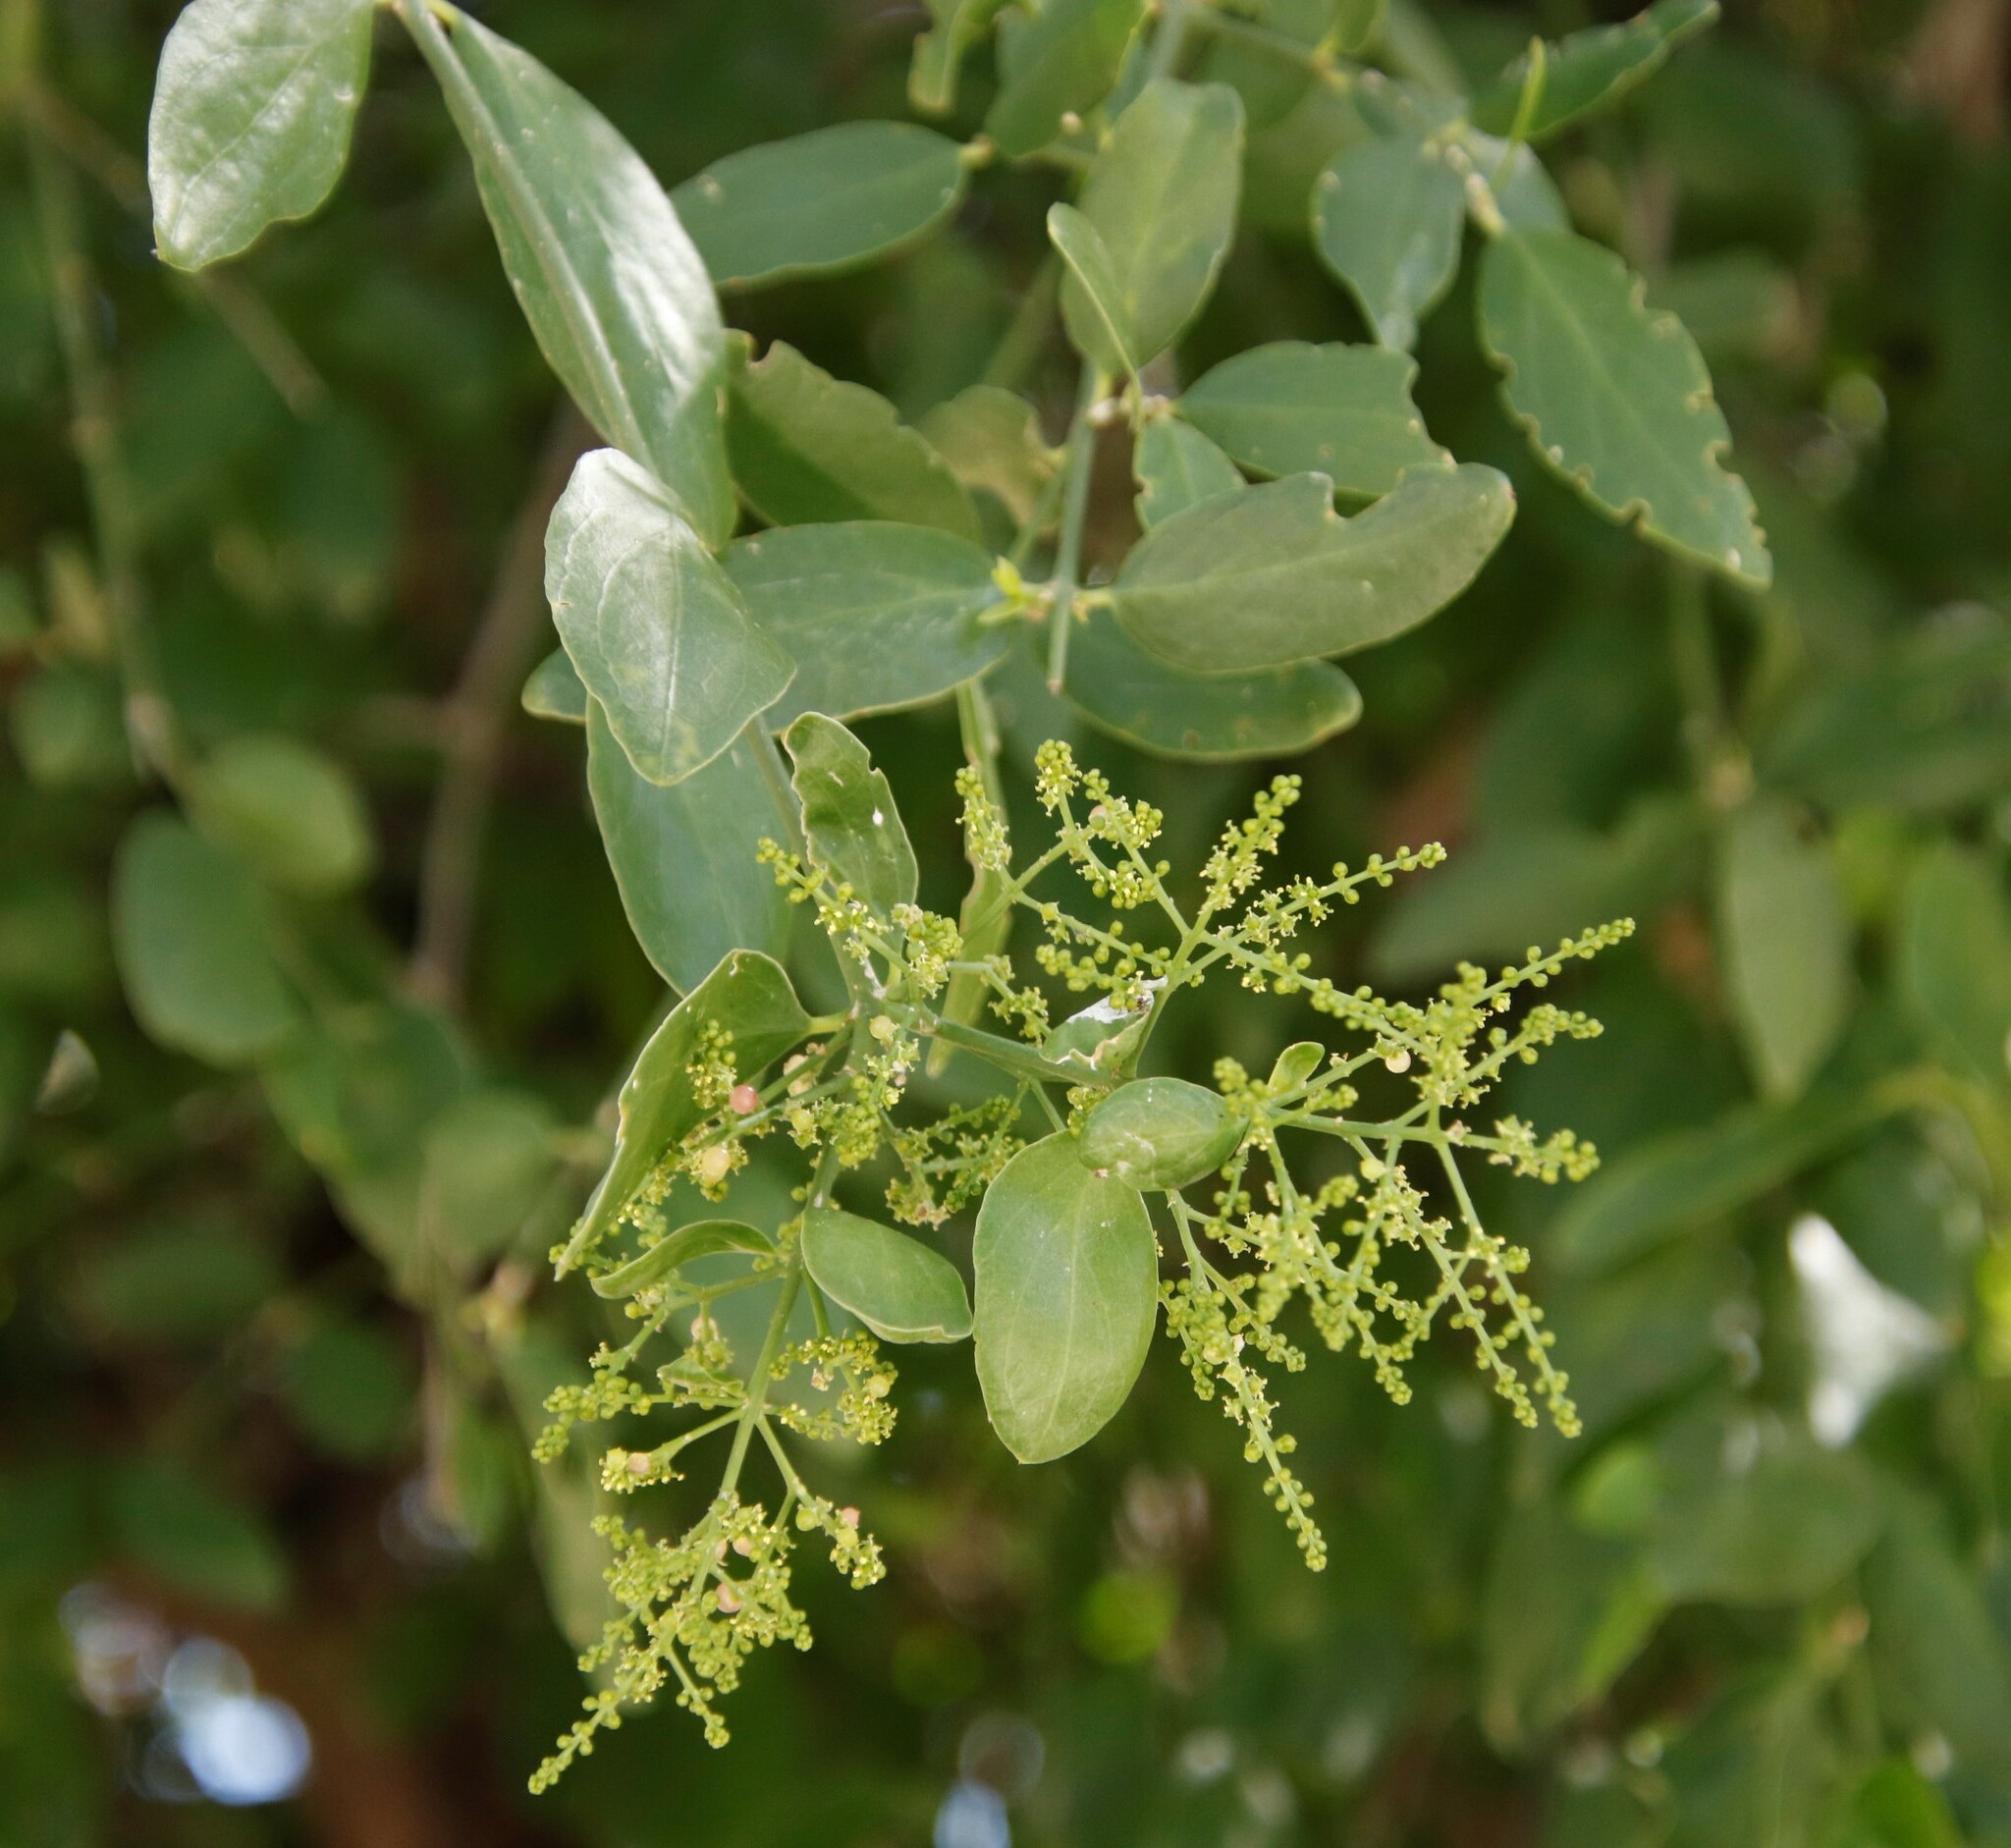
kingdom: Plantae
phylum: Tracheophyta
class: Magnoliopsida
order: Brassicales
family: Salvadoraceae
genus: Salvadora
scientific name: Salvadora persica
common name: Toothbrushtree
